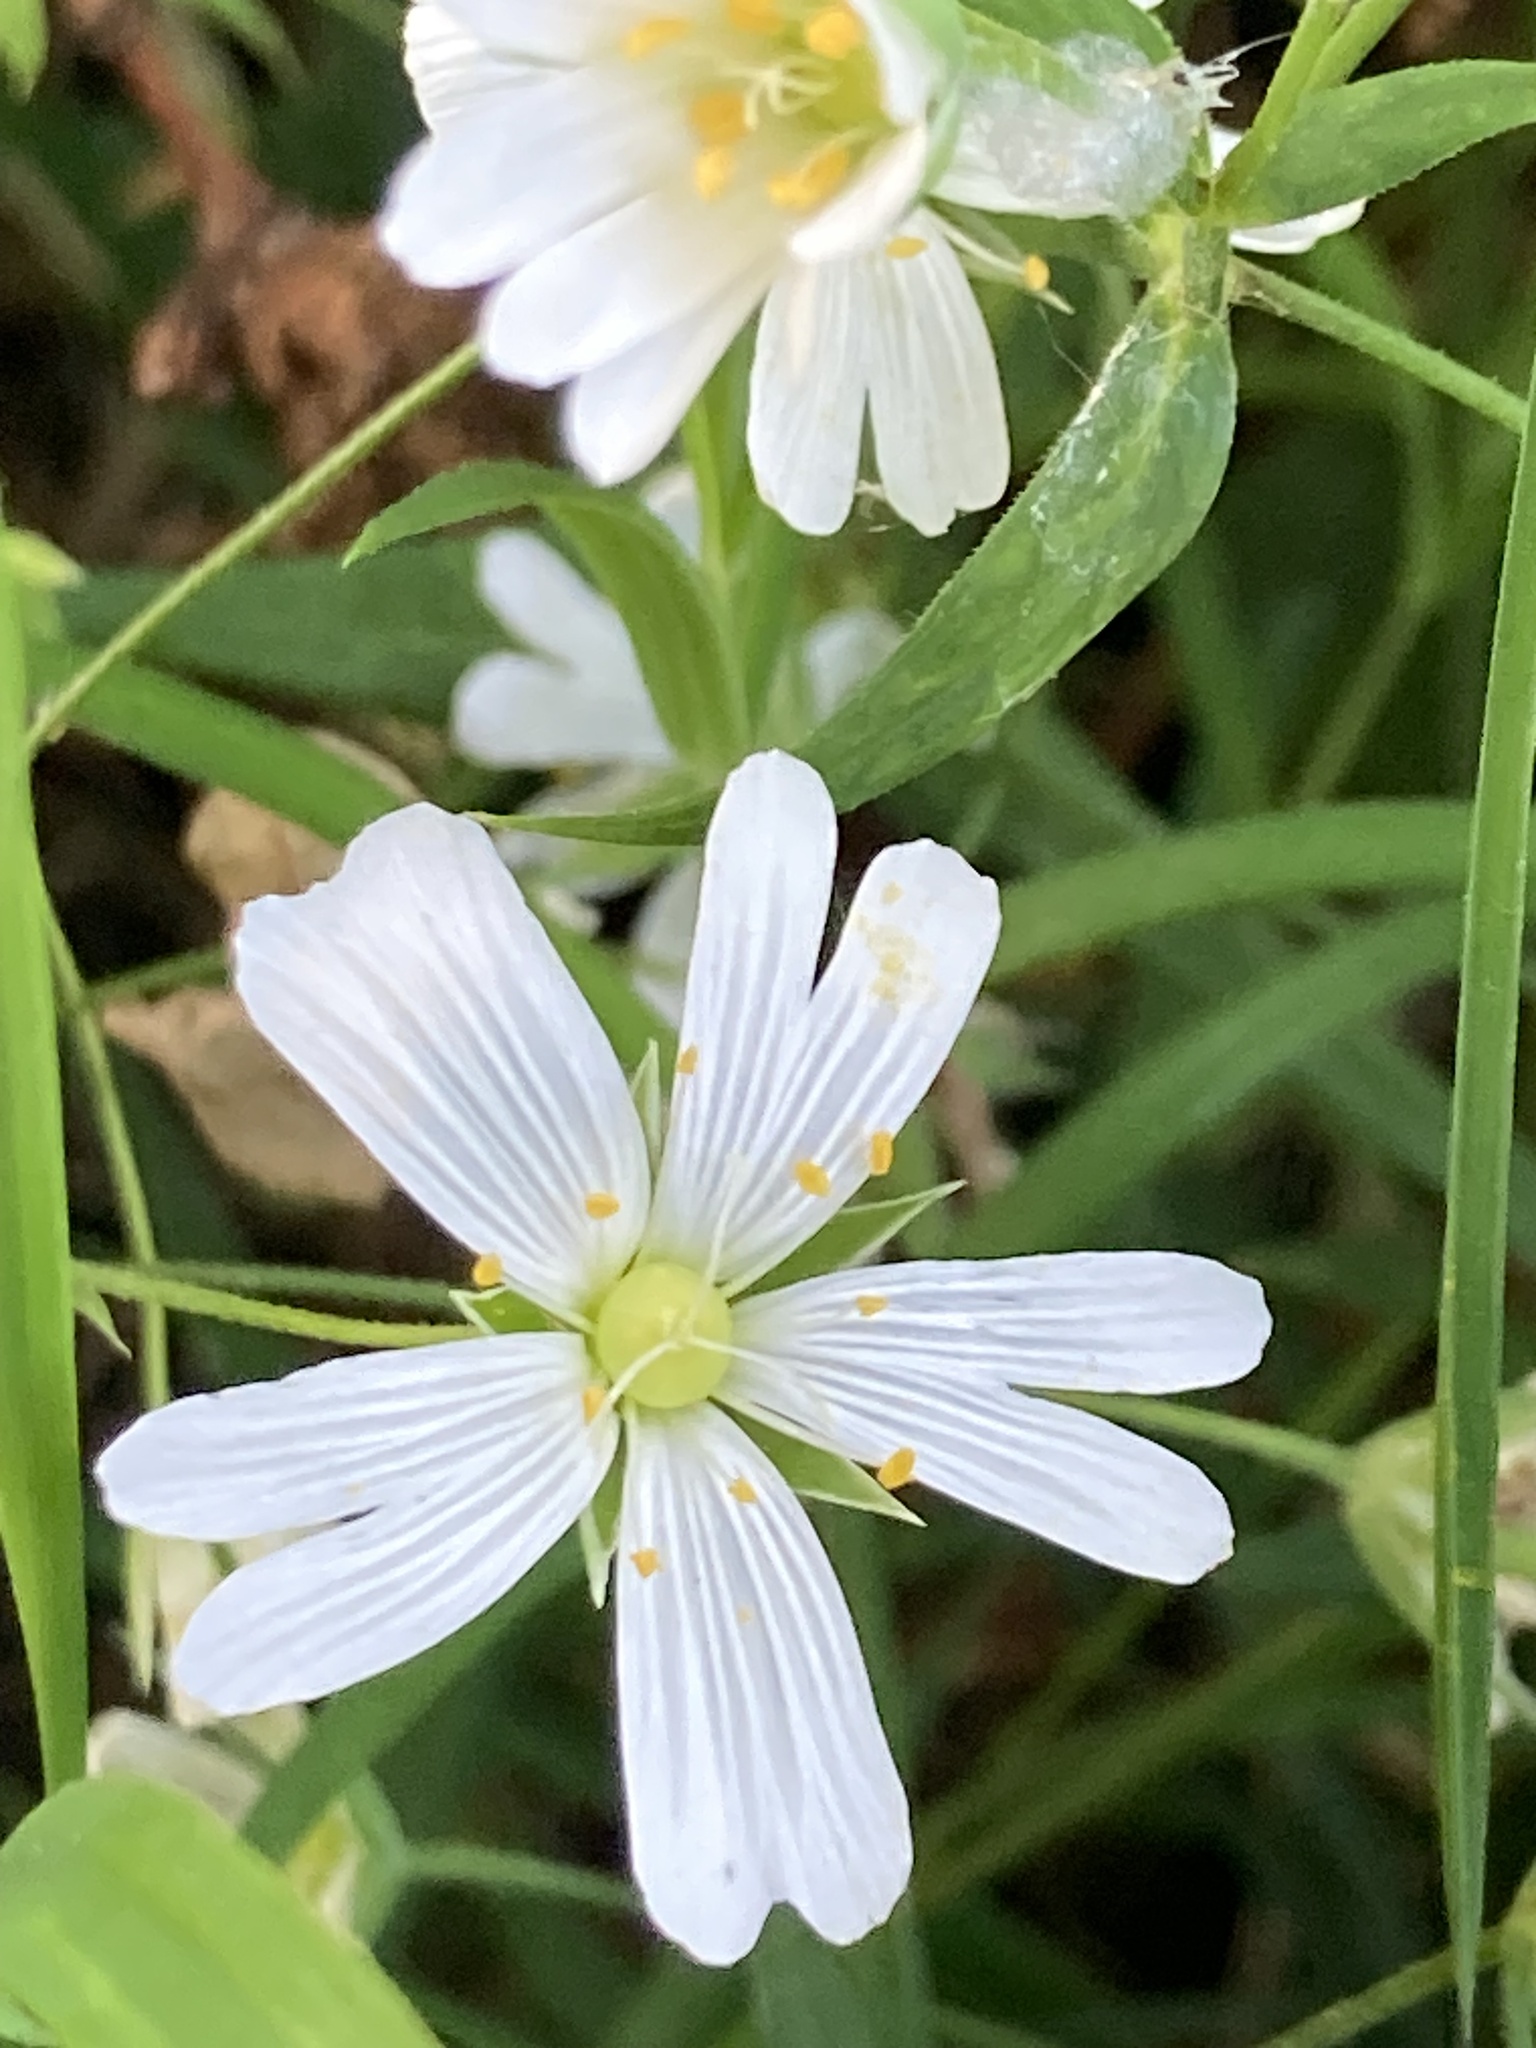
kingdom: Plantae
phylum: Tracheophyta
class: Magnoliopsida
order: Caryophyllales
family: Caryophyllaceae
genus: Rabelera
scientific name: Rabelera holostea
